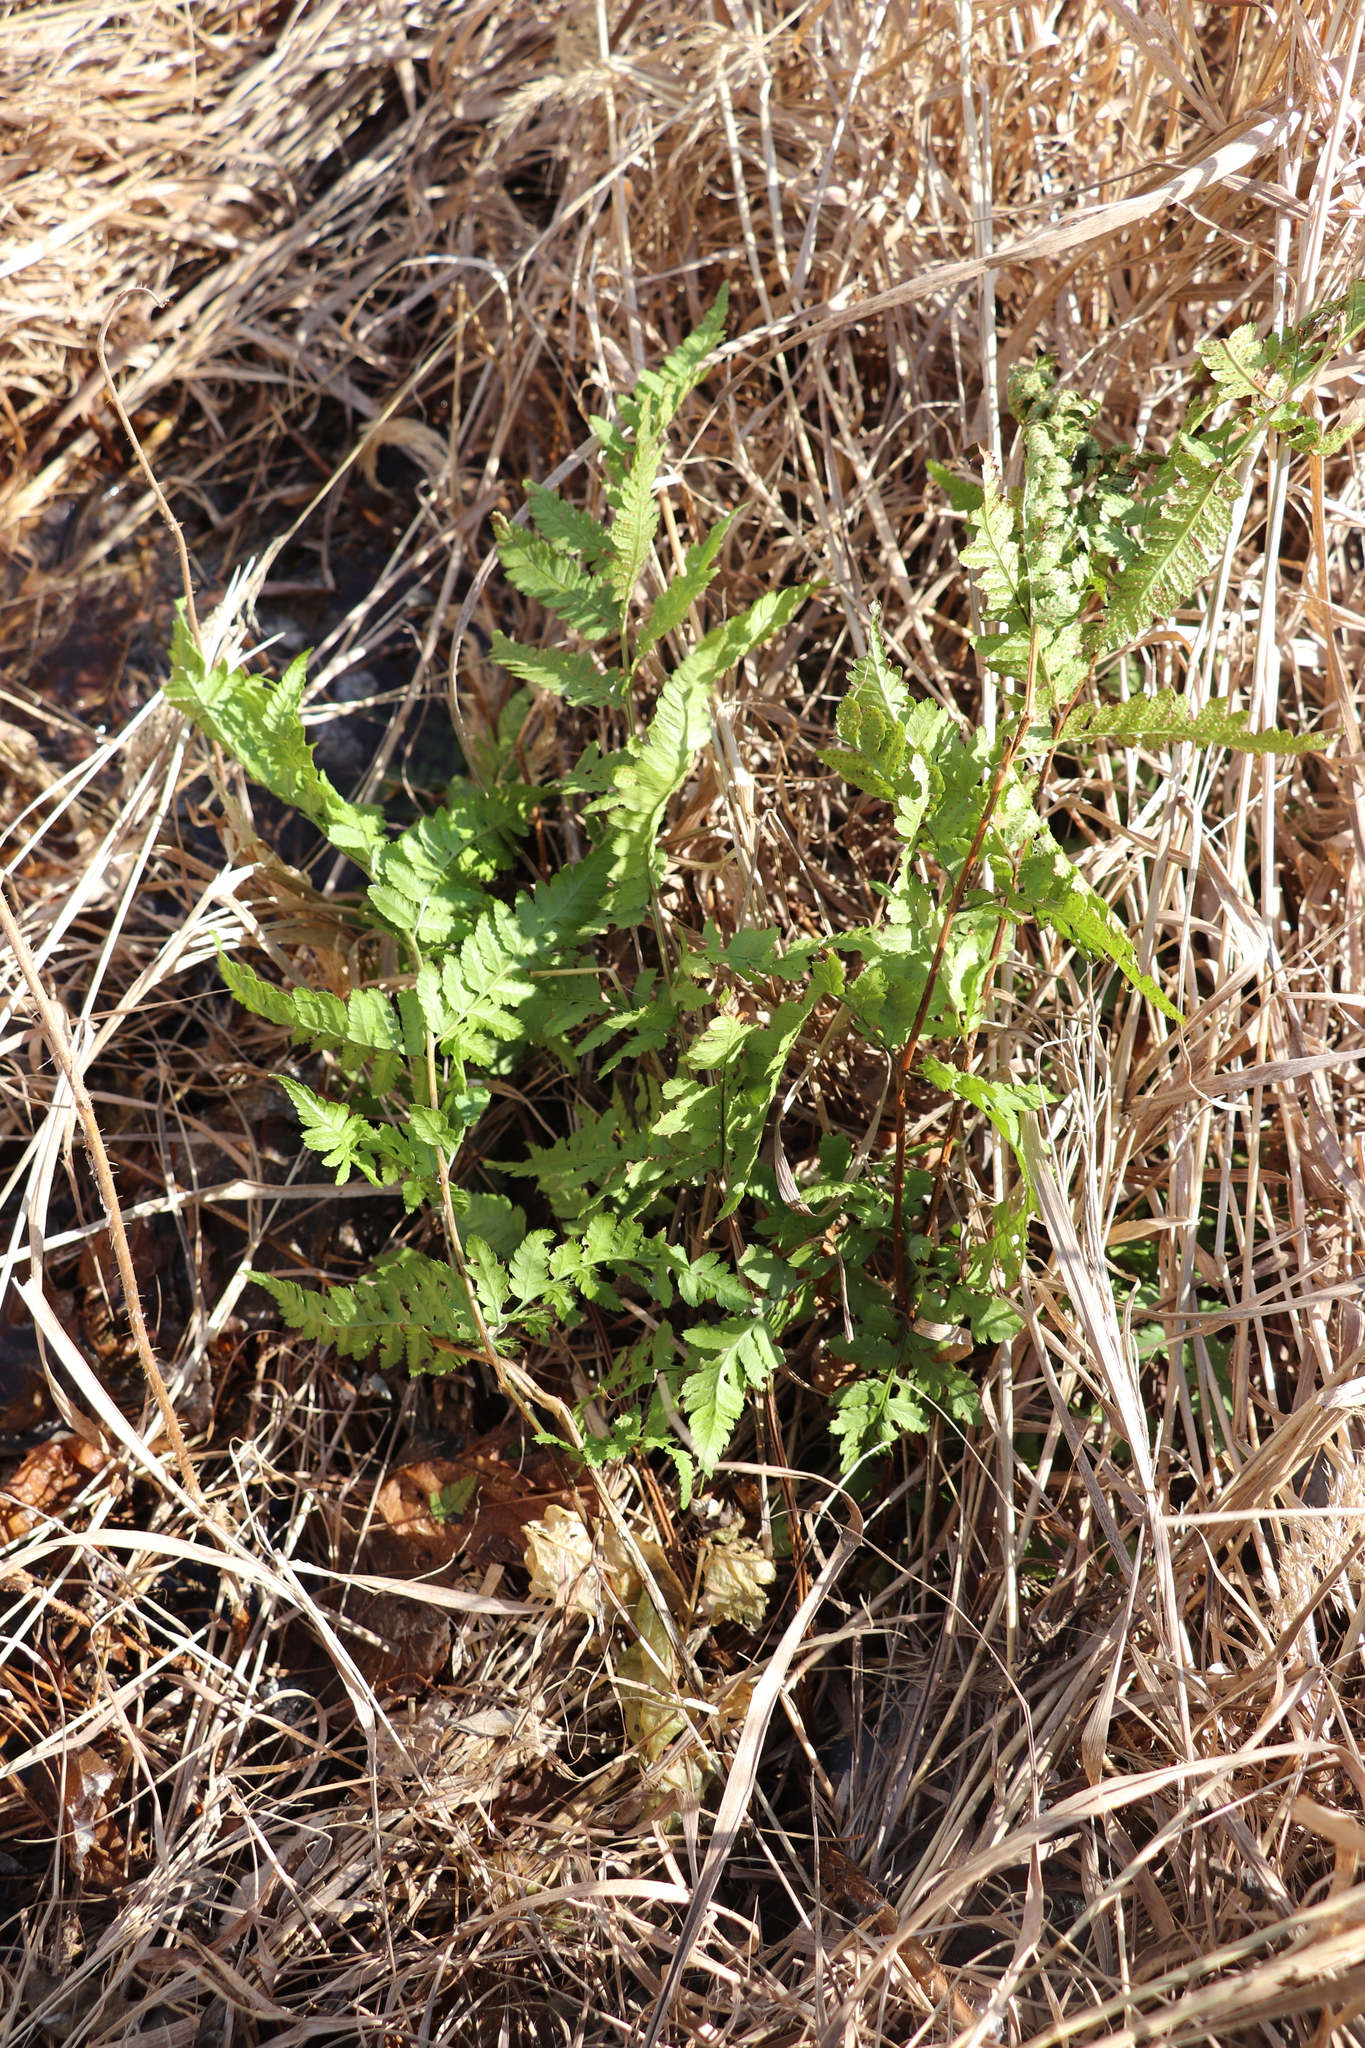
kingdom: Plantae
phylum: Tracheophyta
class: Polypodiopsida
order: Polypodiales
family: Dryopteridaceae
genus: Dryopteris
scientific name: Dryopteris carthusiana
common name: Narrow buckler-fern
